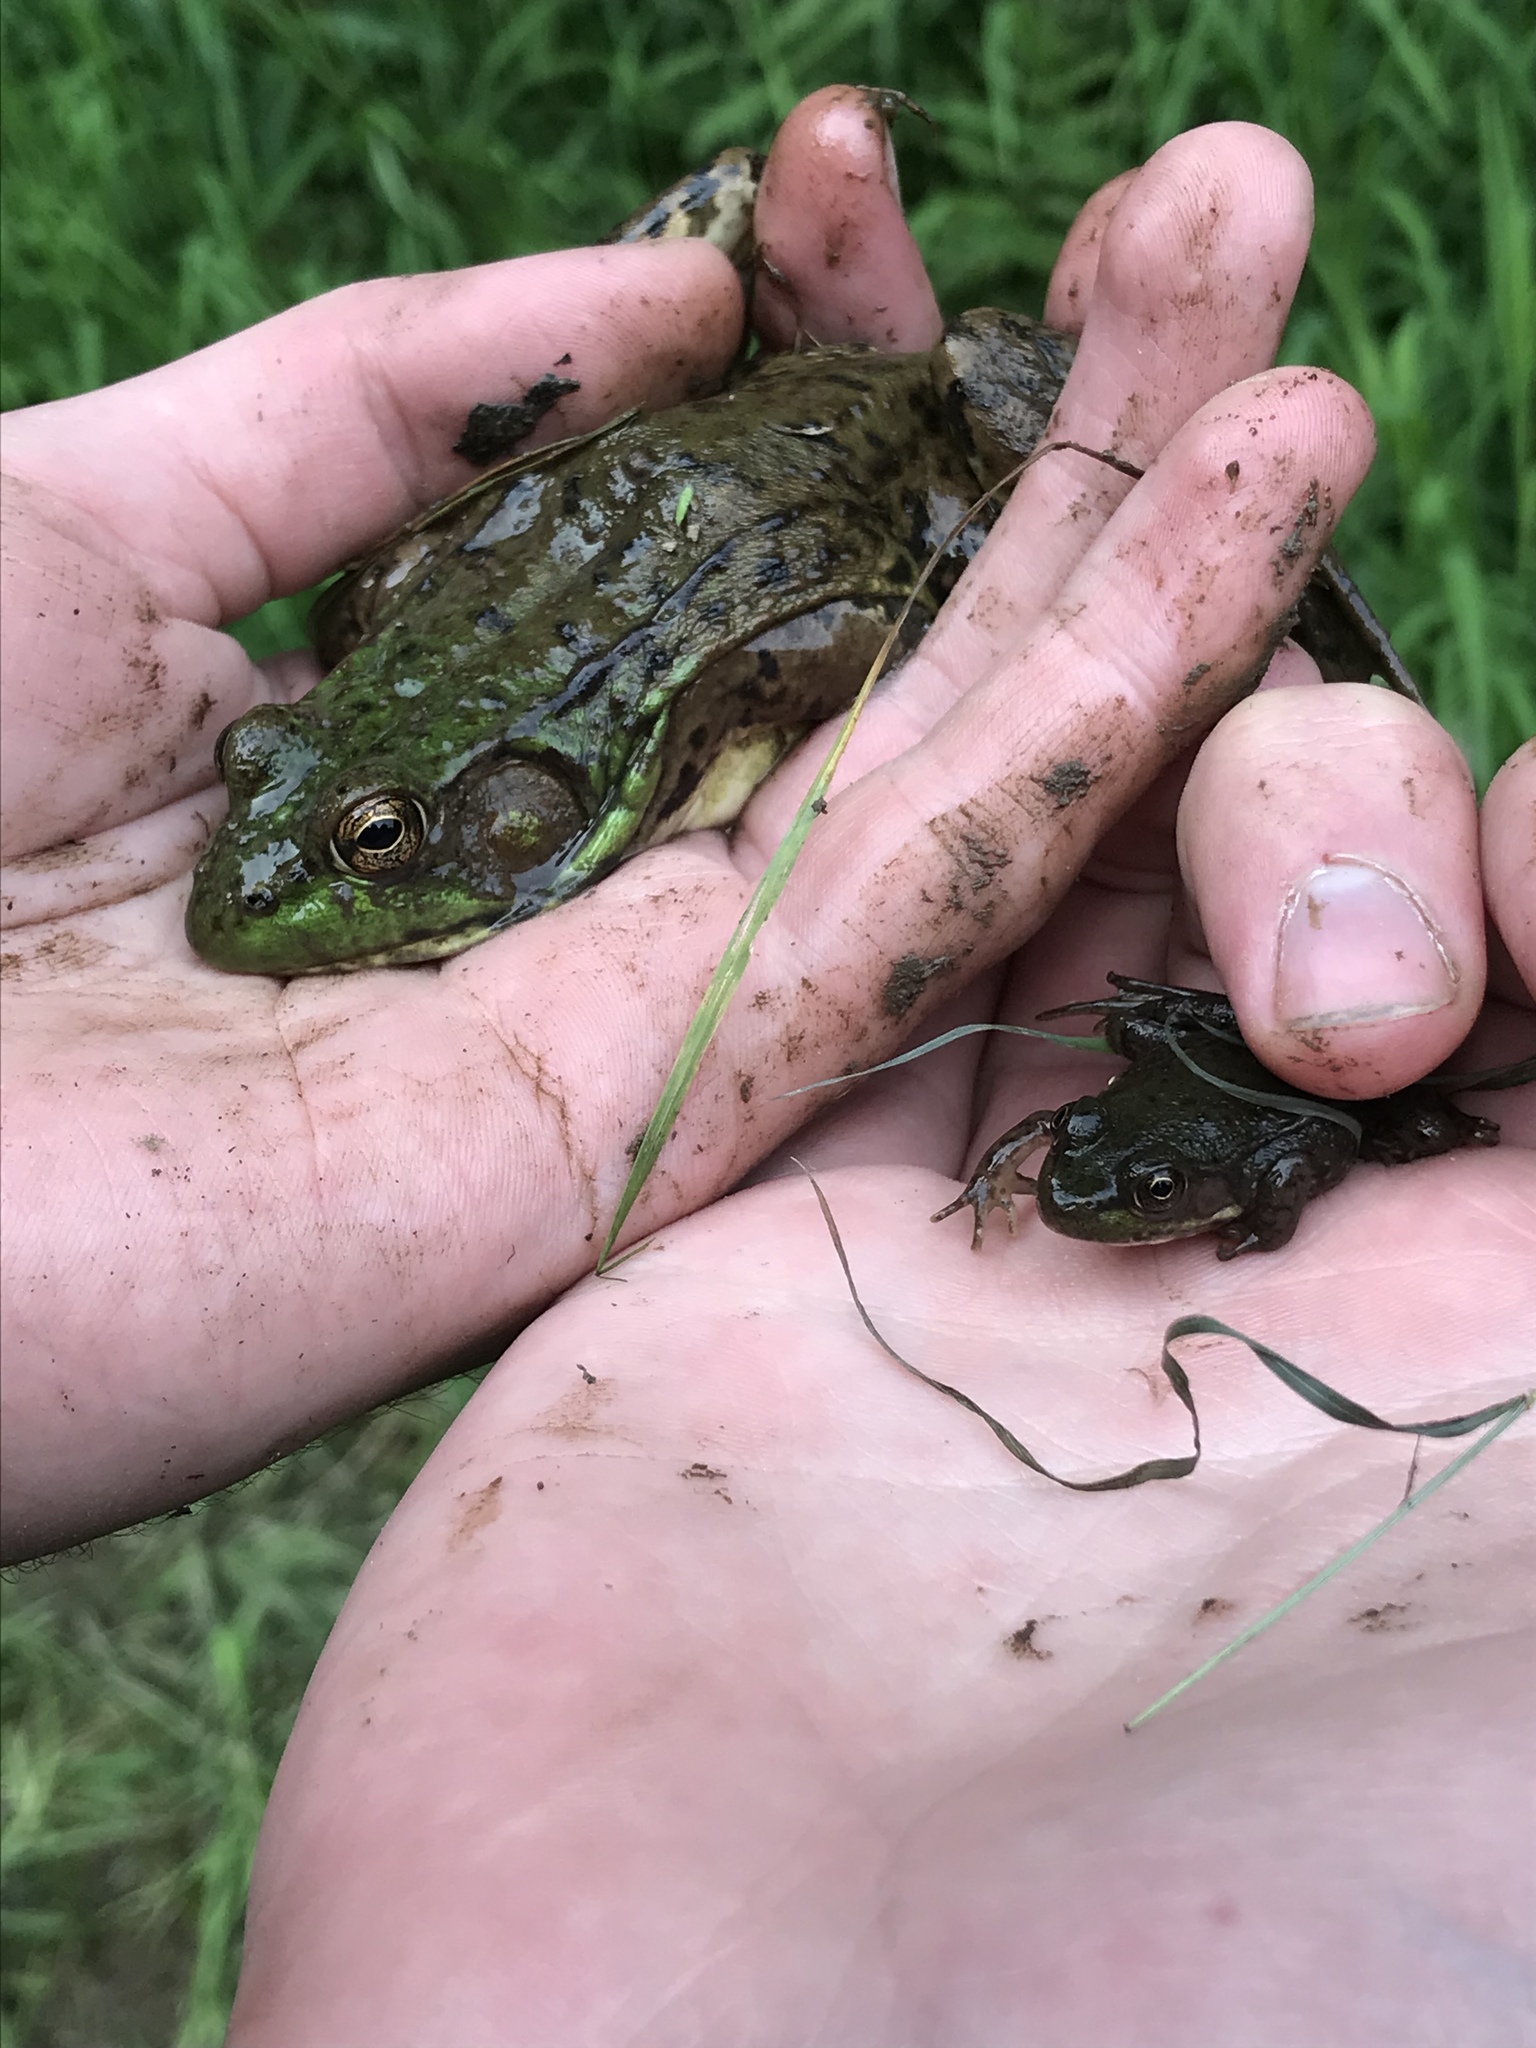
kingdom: Animalia
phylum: Chordata
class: Amphibia
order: Anura
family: Ranidae
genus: Lithobates
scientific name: Lithobates clamitans
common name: Green frog
